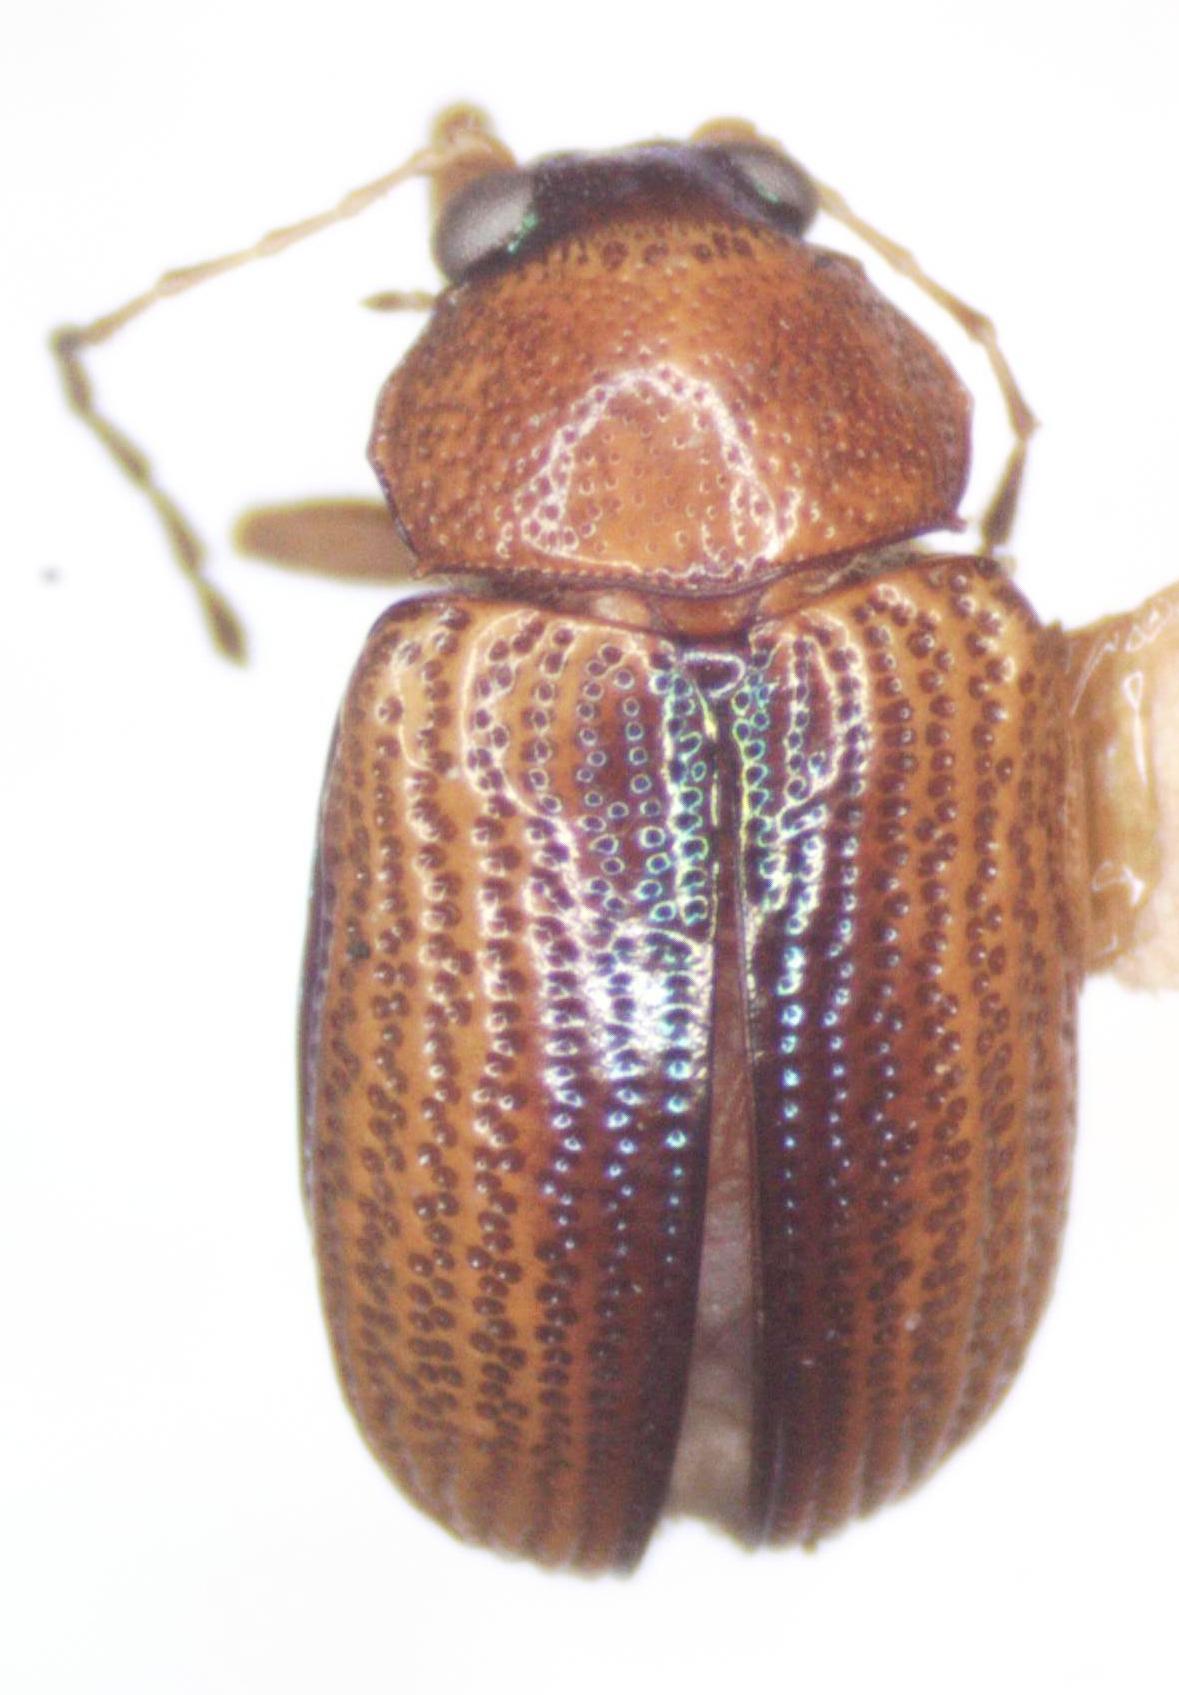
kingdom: Animalia
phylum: Arthropoda
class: Insecta
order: Coleoptera
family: Chrysomelidae
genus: Deuteronoda
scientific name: Deuteronoda
